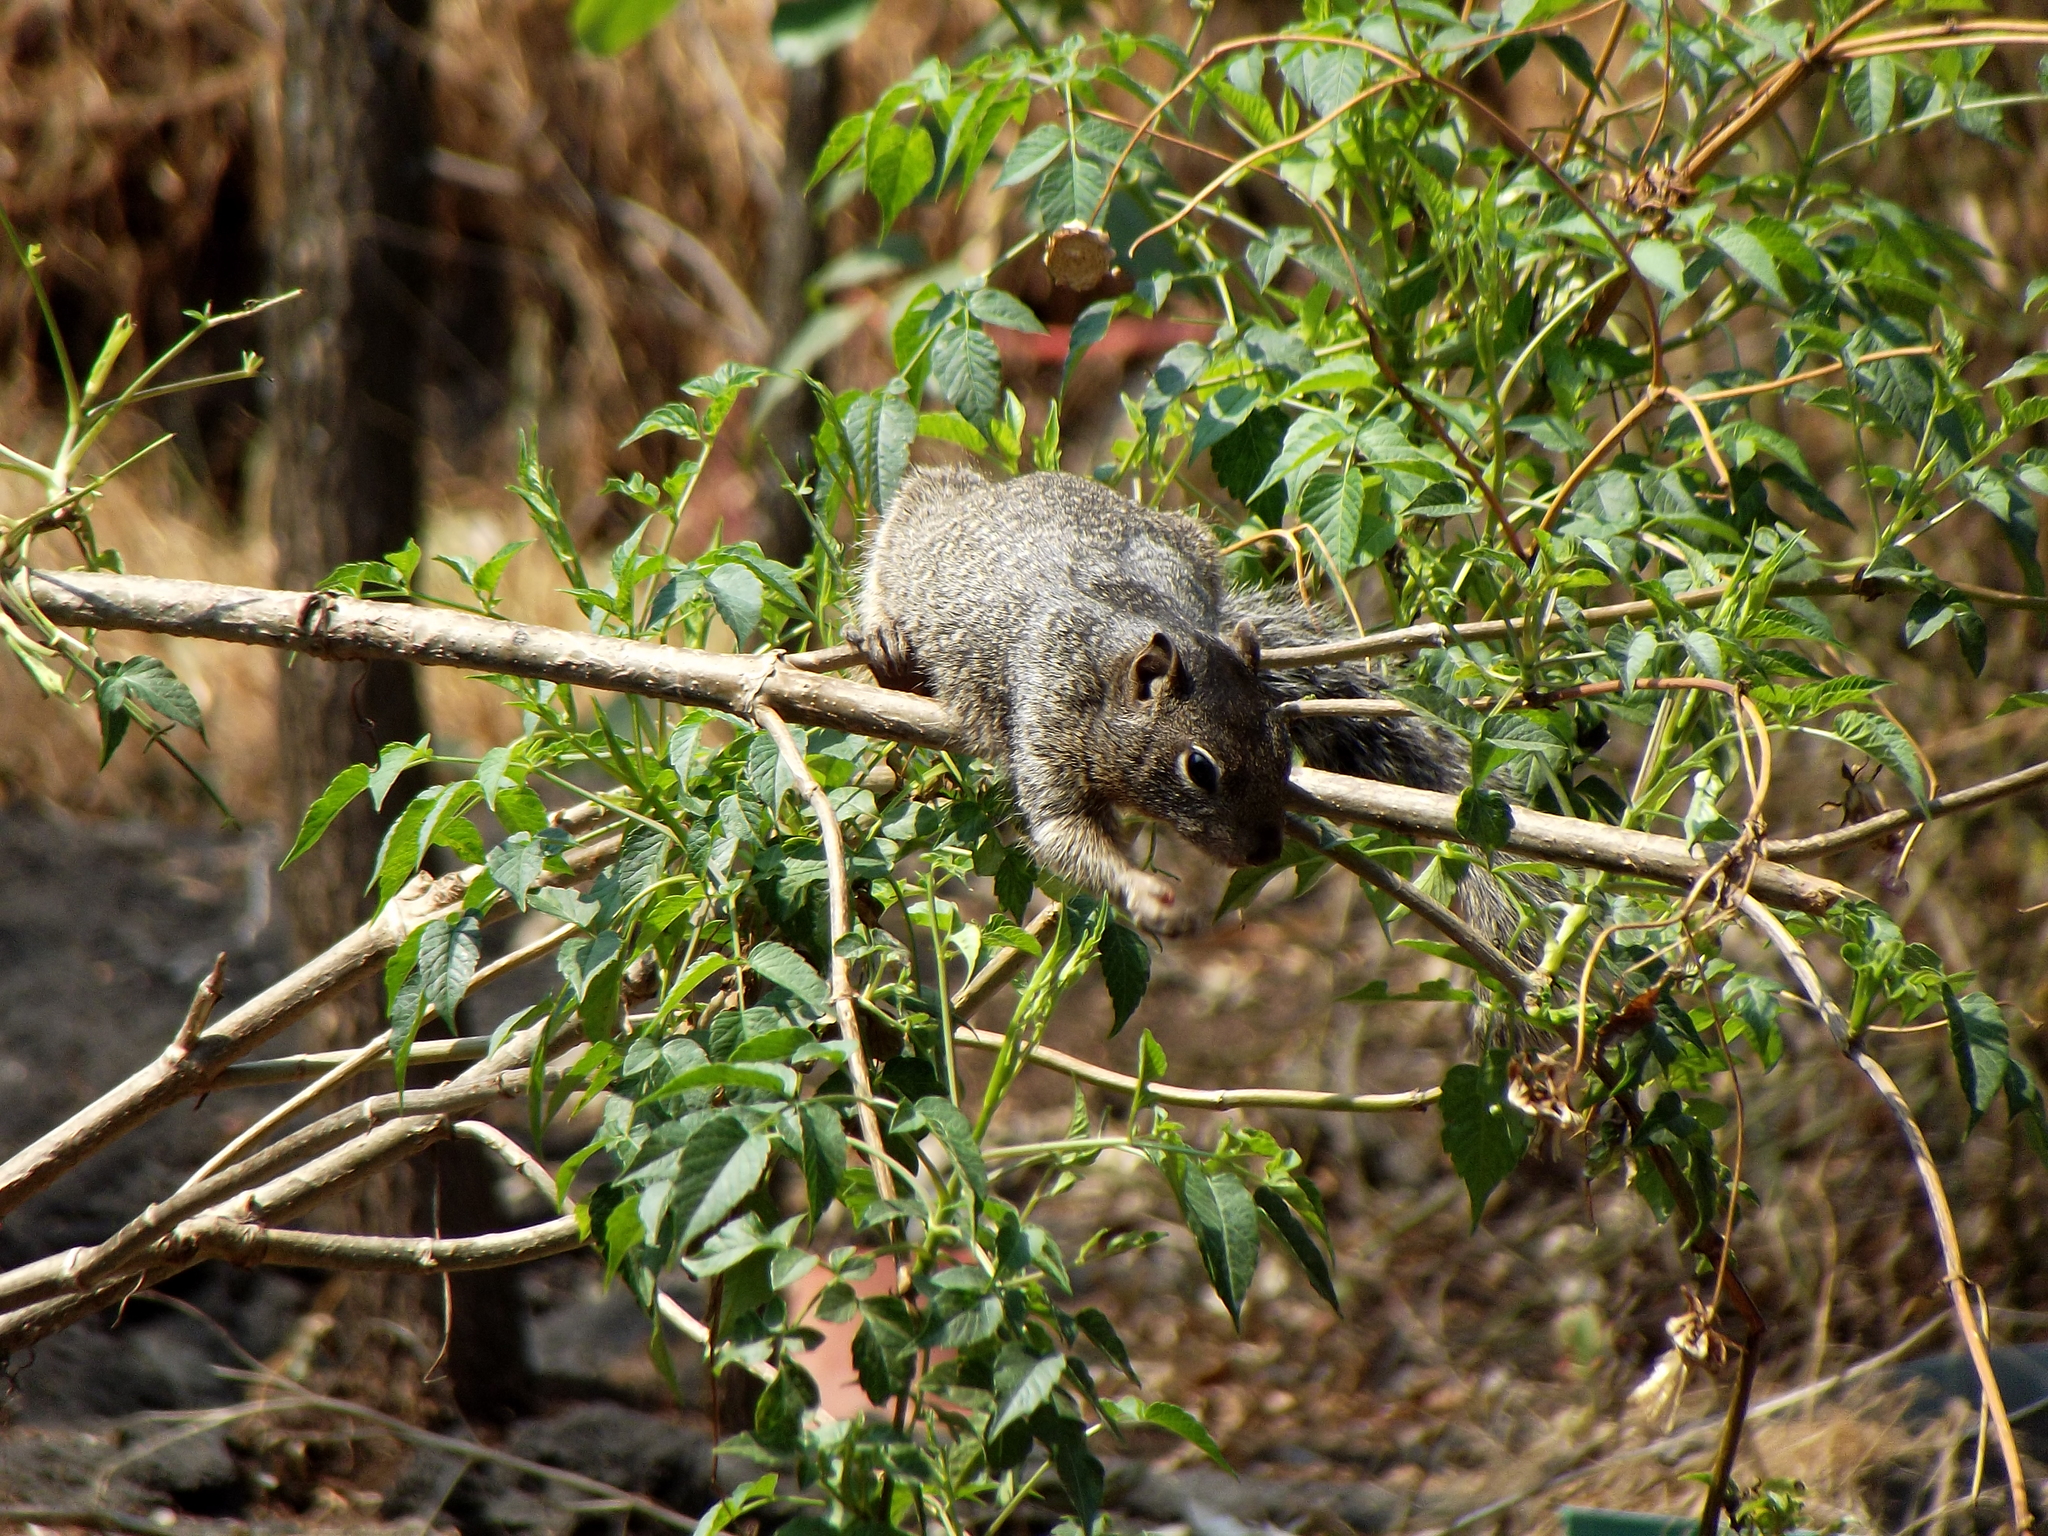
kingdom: Animalia
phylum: Chordata
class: Mammalia
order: Rodentia
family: Sciuridae
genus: Otospermophilus
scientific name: Otospermophilus variegatus
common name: Rock squirrel
